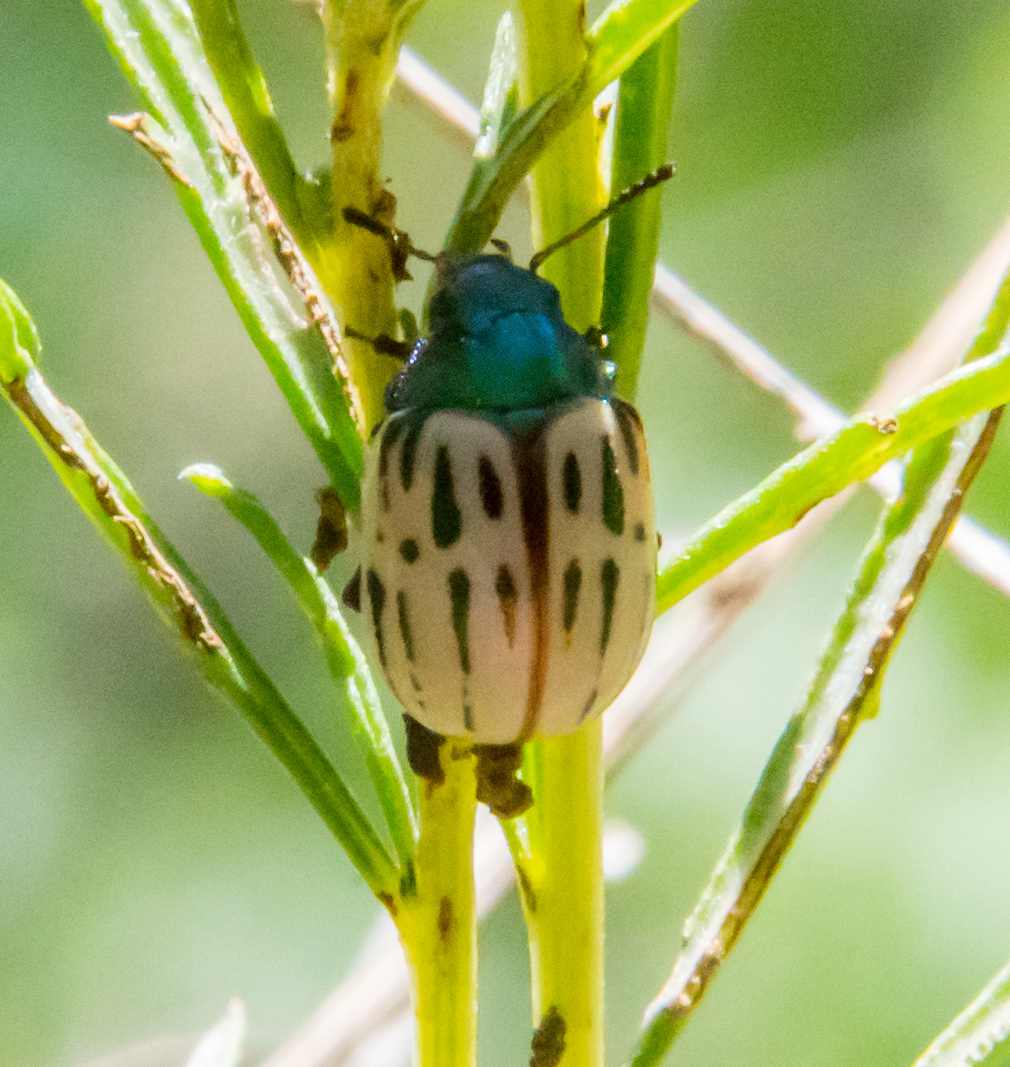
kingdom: Animalia
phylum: Arthropoda
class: Insecta
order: Coleoptera
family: Chrysomelidae
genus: Leptinotarsa
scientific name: Leptinotarsa lineolata
